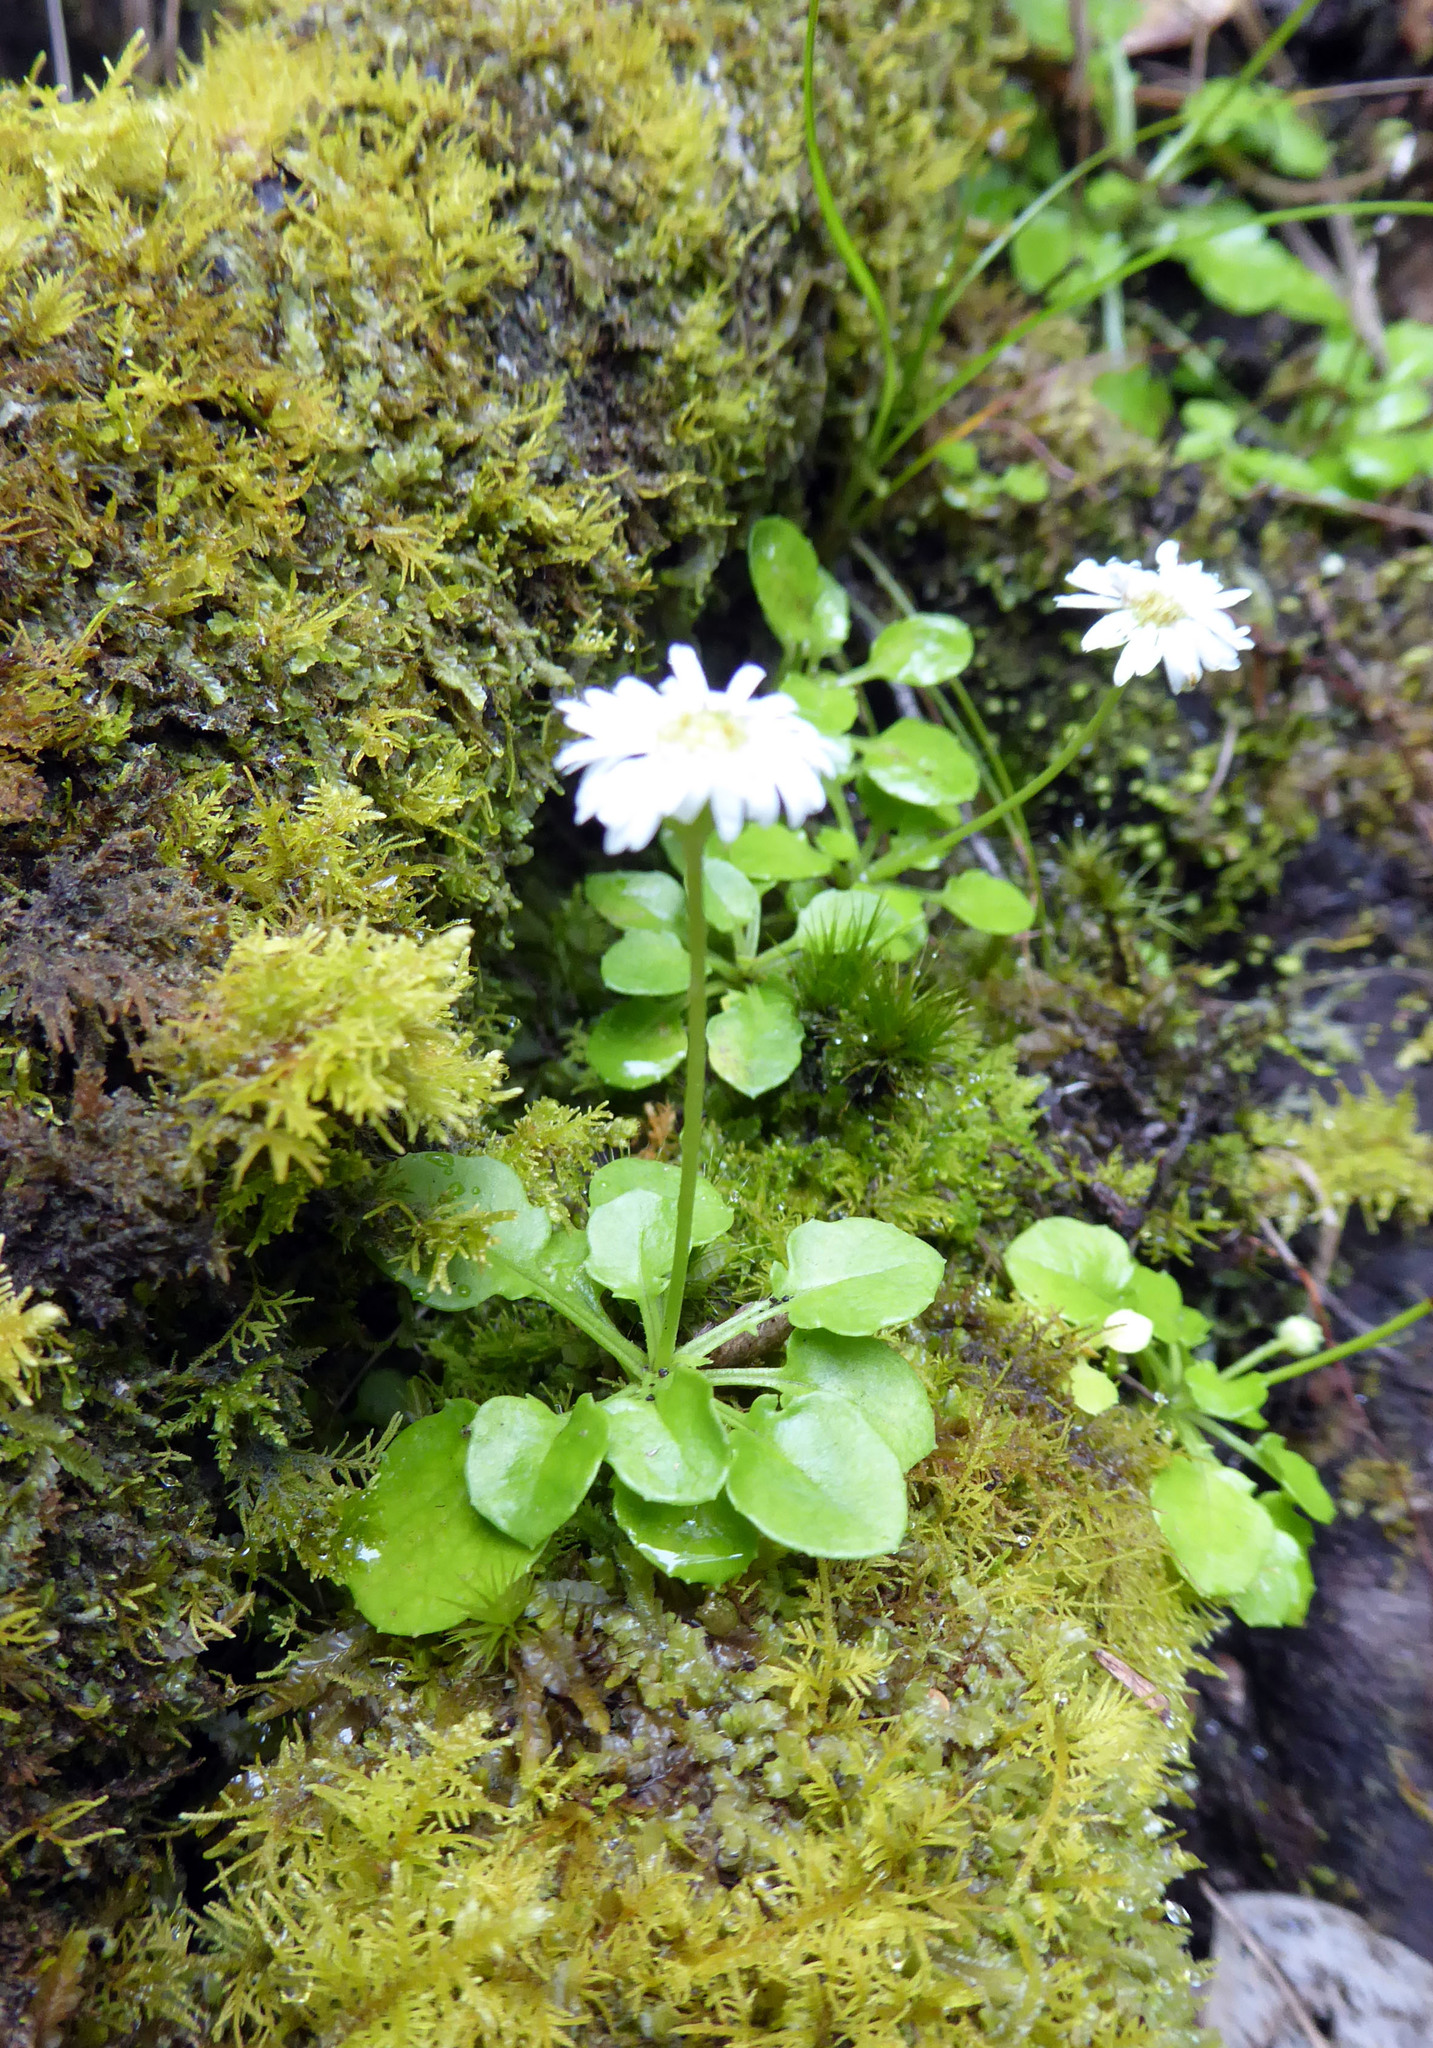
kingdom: Plantae
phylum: Tracheophyta
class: Magnoliopsida
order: Asterales
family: Asteraceae
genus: Lagenophora
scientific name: Lagenophora pumila
